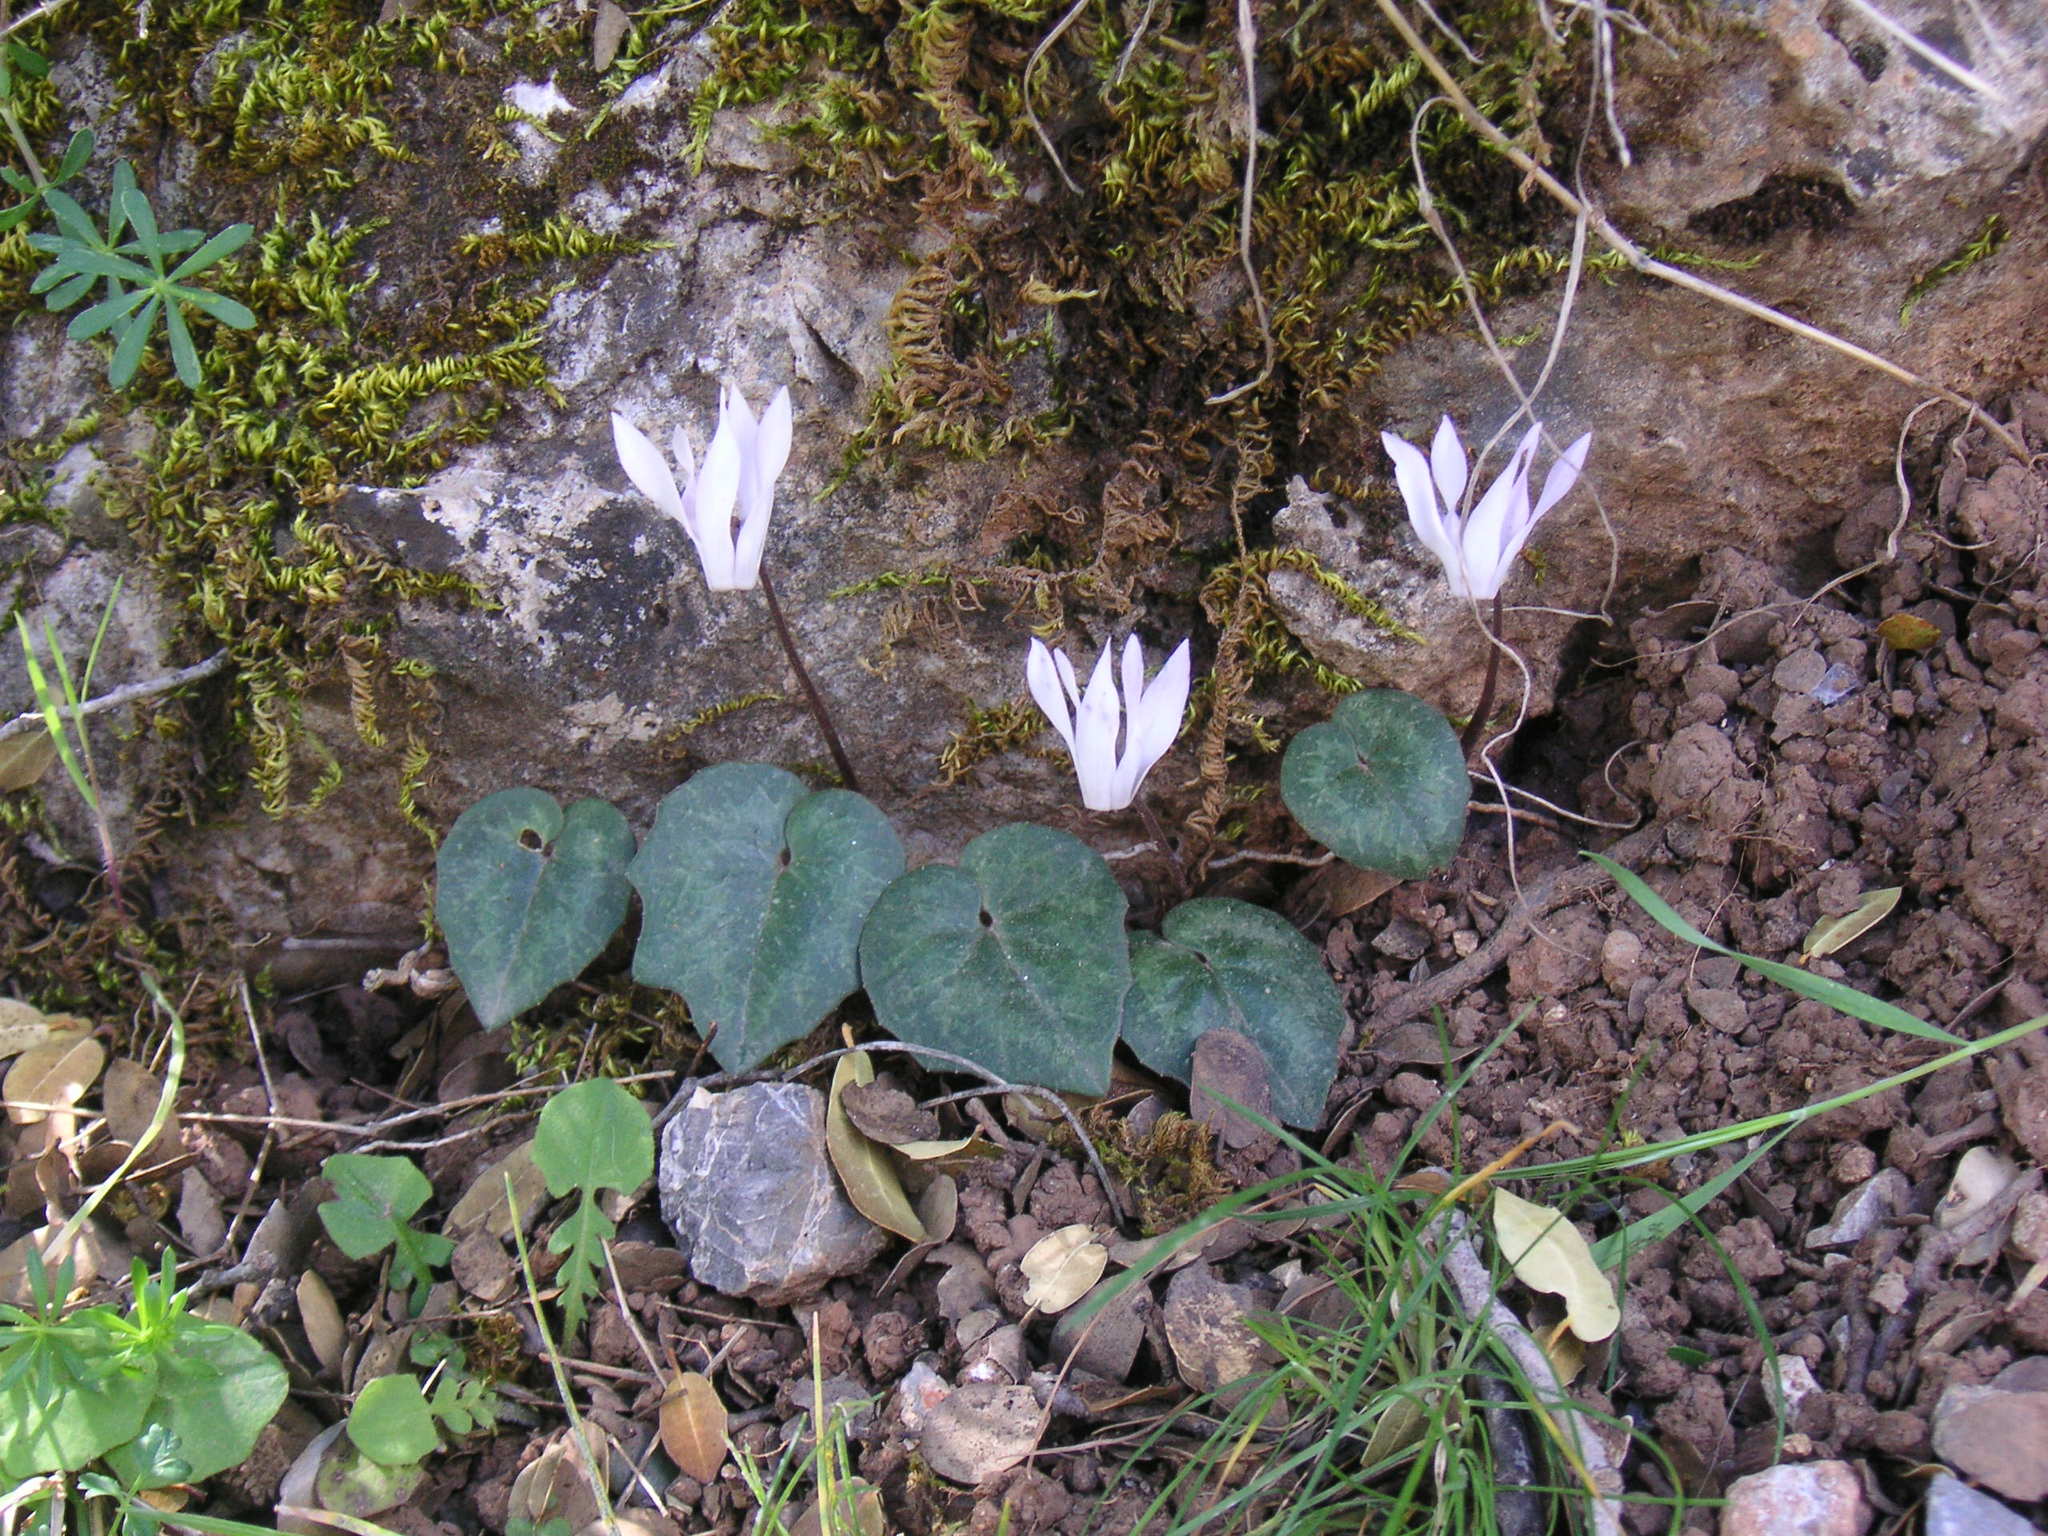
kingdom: Plantae
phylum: Tracheophyta
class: Magnoliopsida
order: Ericales
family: Primulaceae
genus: Cyclamen
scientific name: Cyclamen creticum
